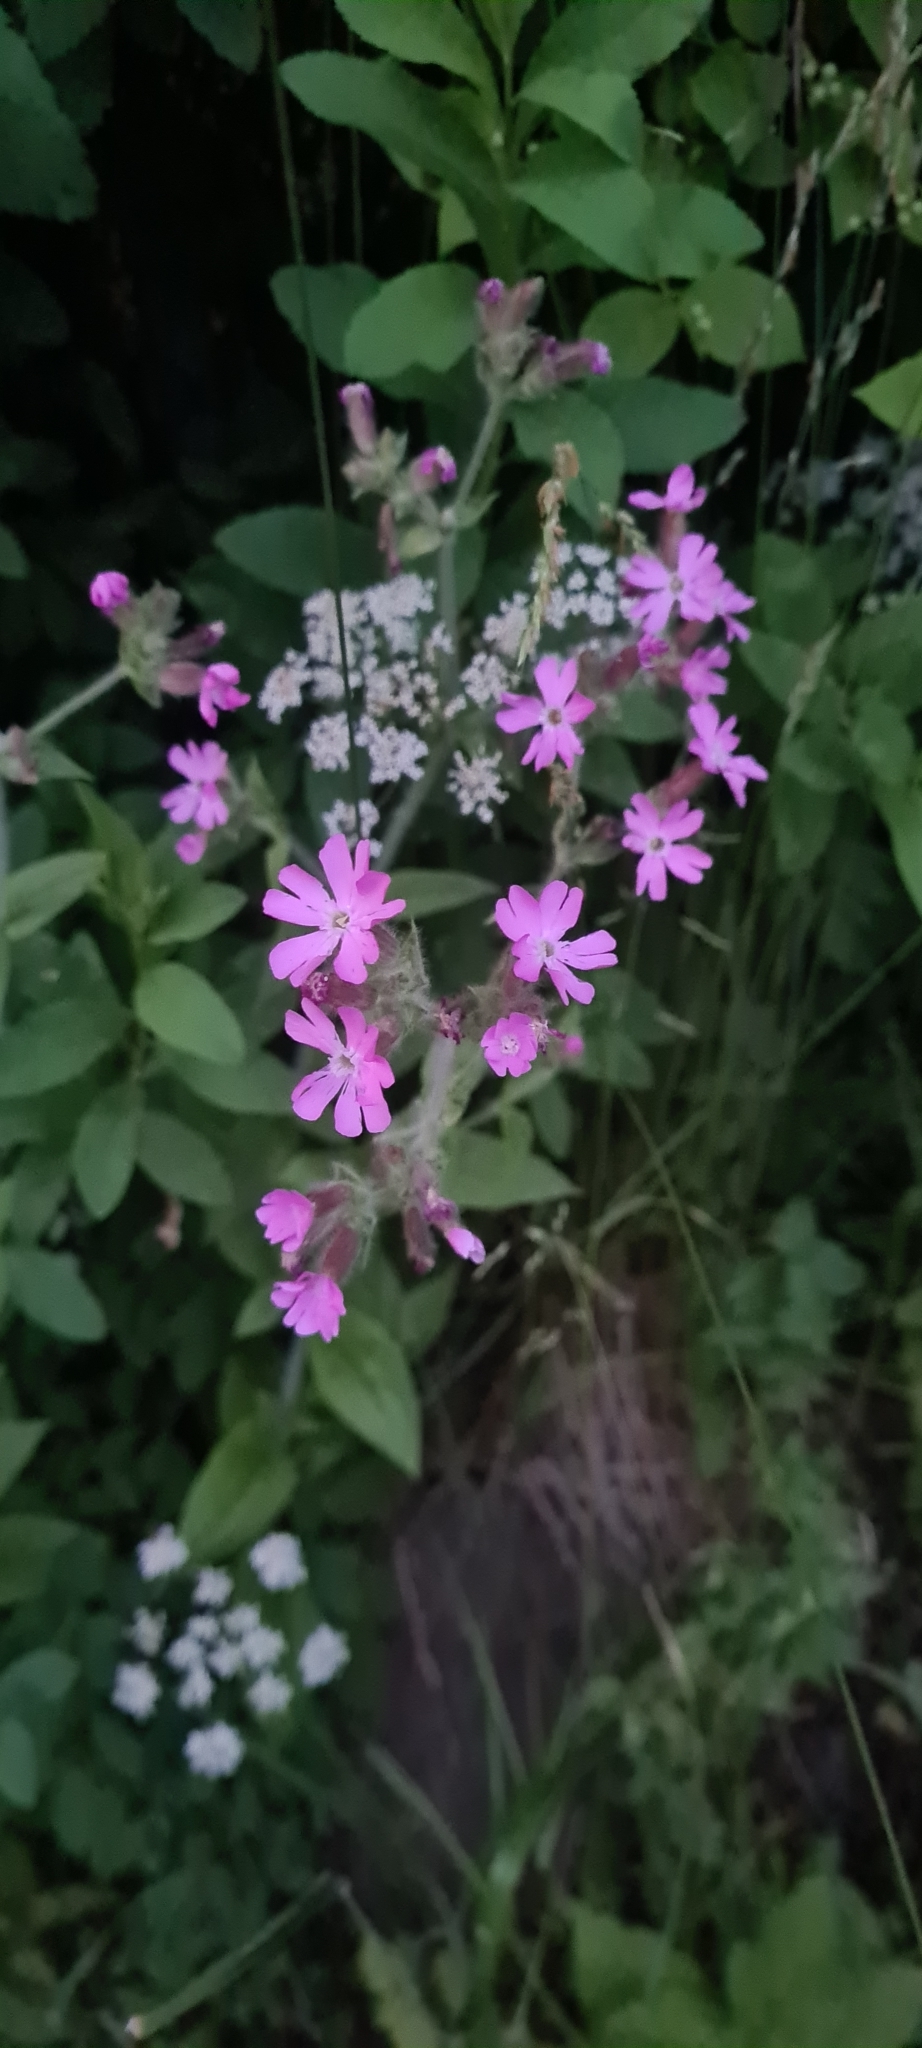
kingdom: Plantae
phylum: Tracheophyta
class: Magnoliopsida
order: Caryophyllales
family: Caryophyllaceae
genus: Silene
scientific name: Silene dioica
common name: Red campion
